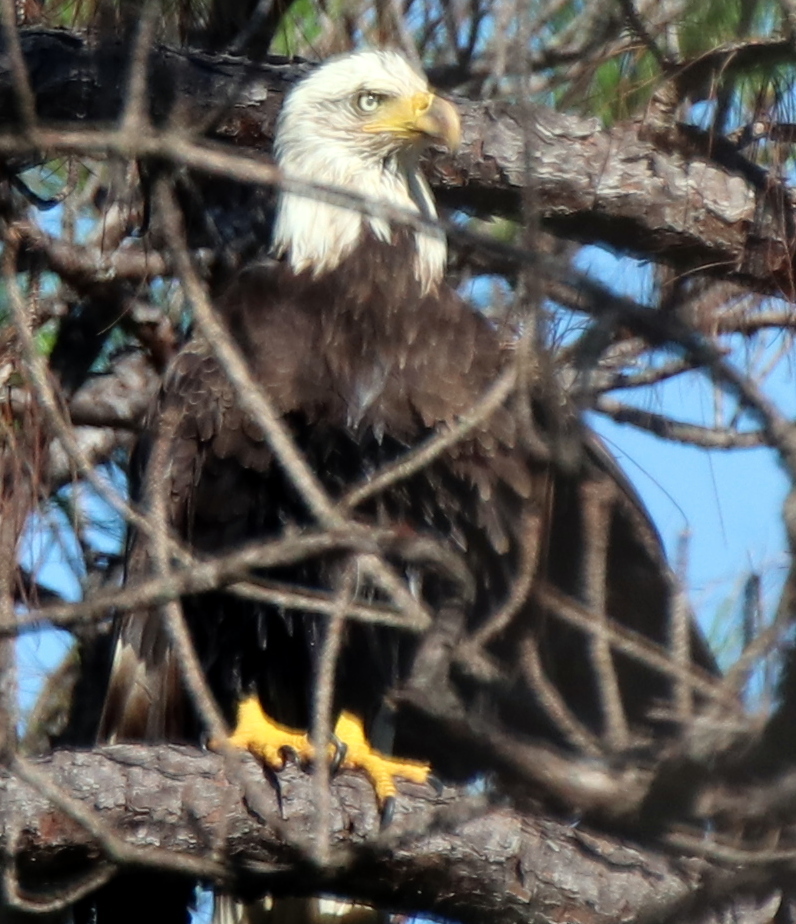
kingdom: Animalia
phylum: Chordata
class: Aves
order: Accipitriformes
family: Accipitridae
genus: Haliaeetus
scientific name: Haliaeetus leucocephalus
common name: Bald eagle
